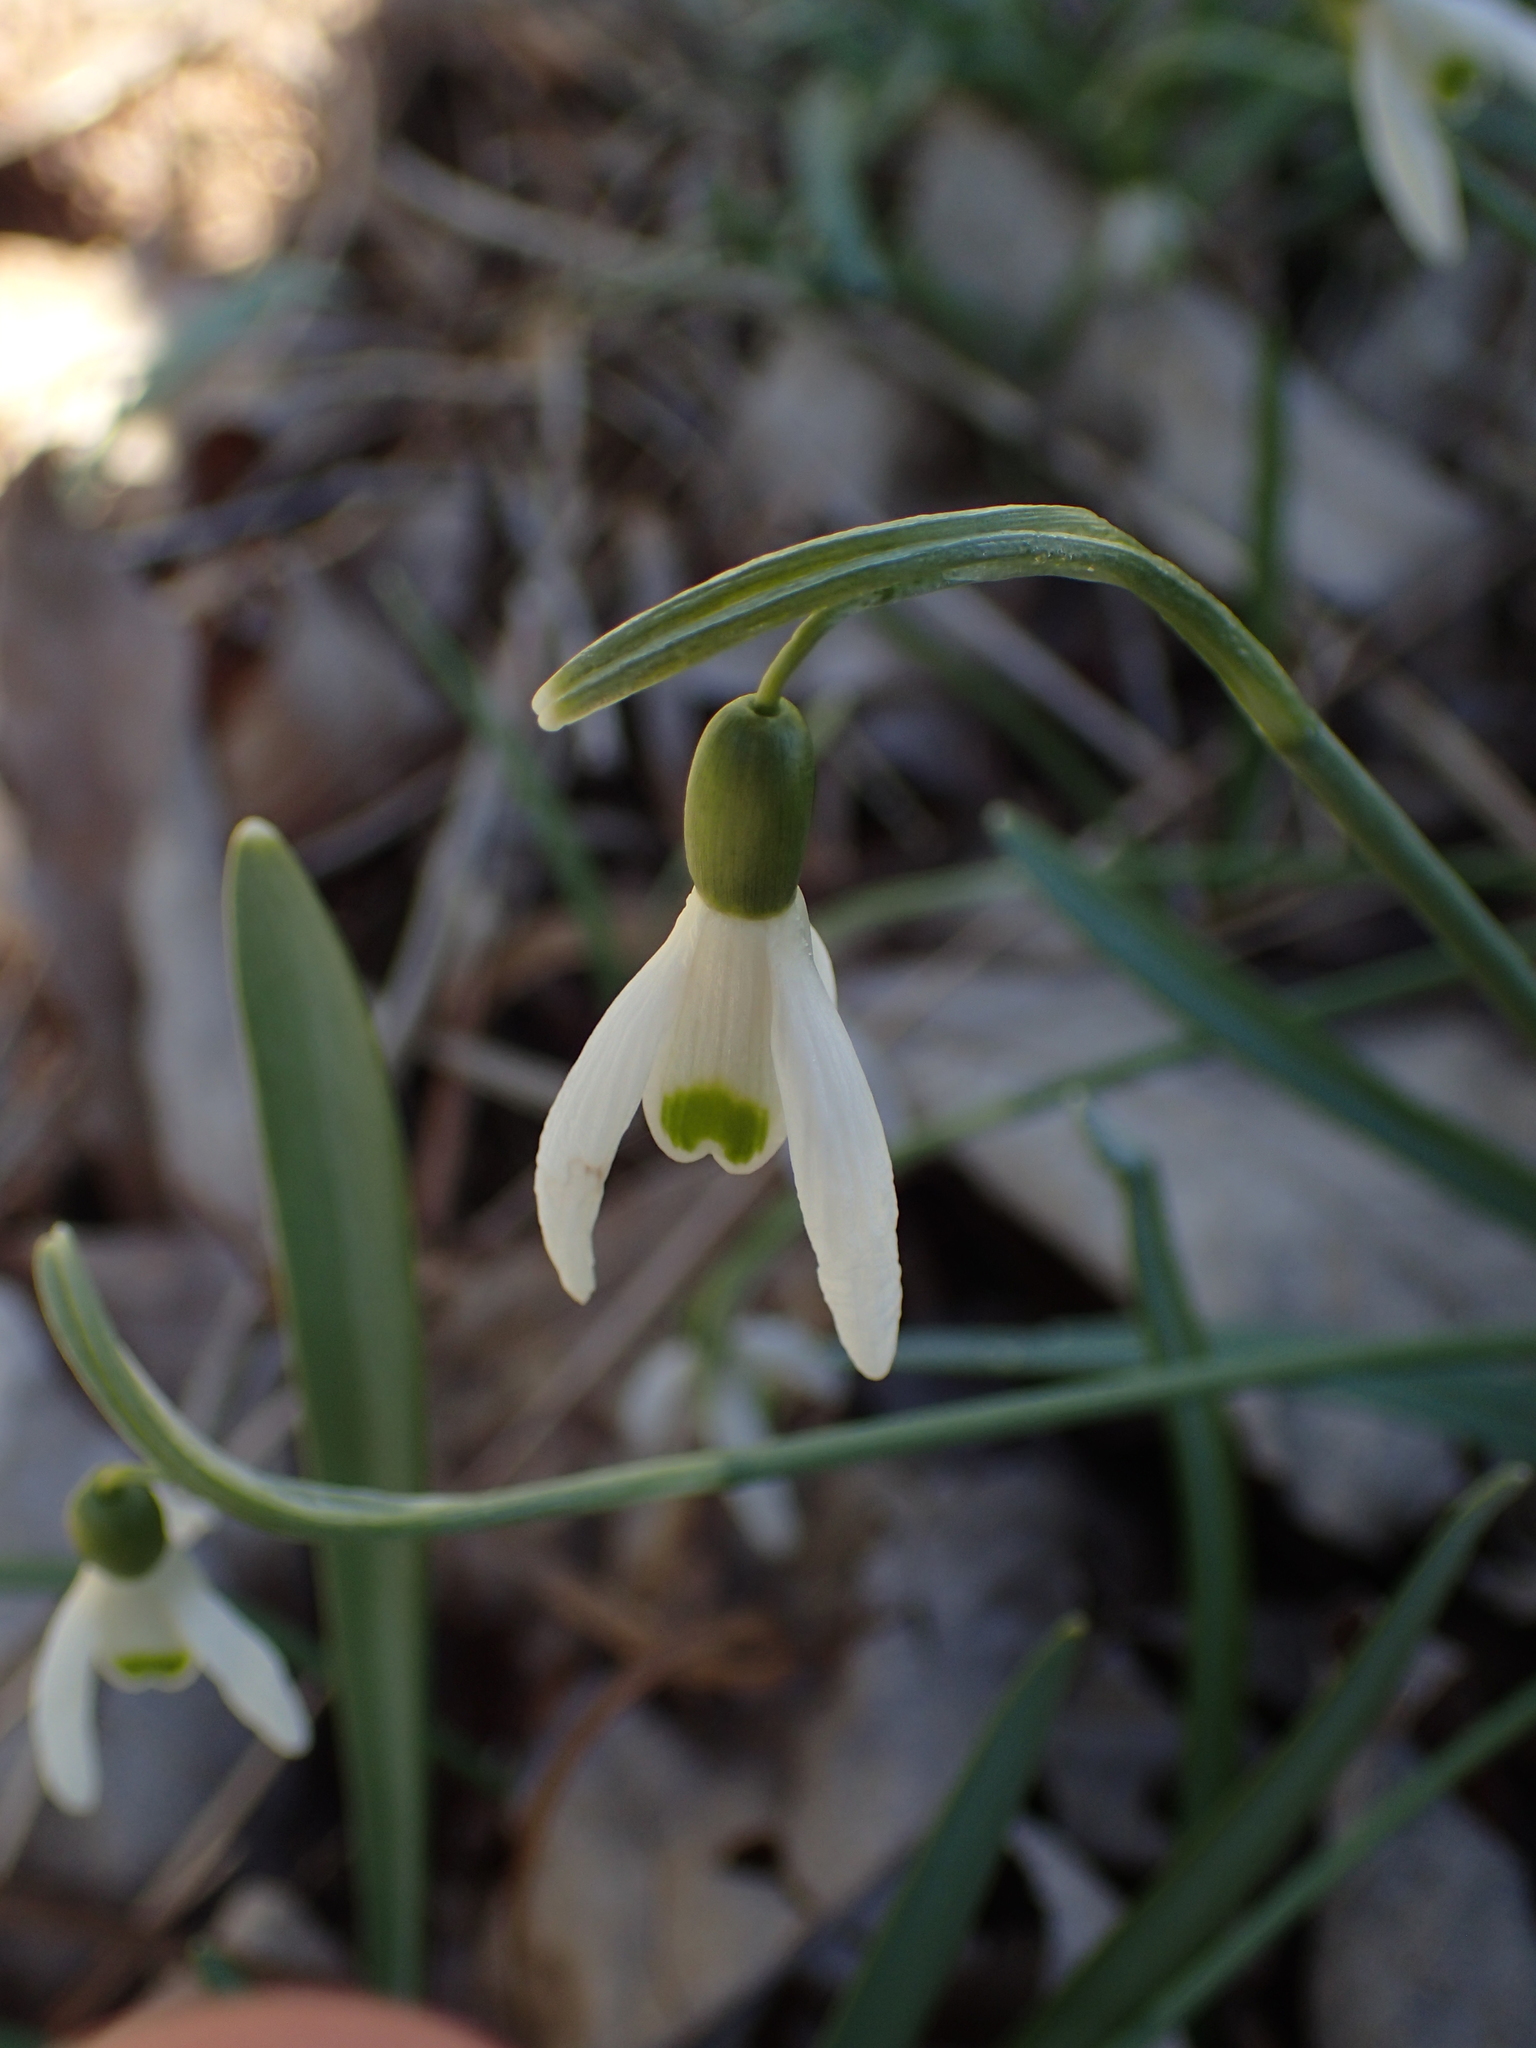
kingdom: Plantae
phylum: Tracheophyta
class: Liliopsida
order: Asparagales
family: Amaryllidaceae
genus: Galanthus
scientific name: Galanthus nivalis
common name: Snowdrop
